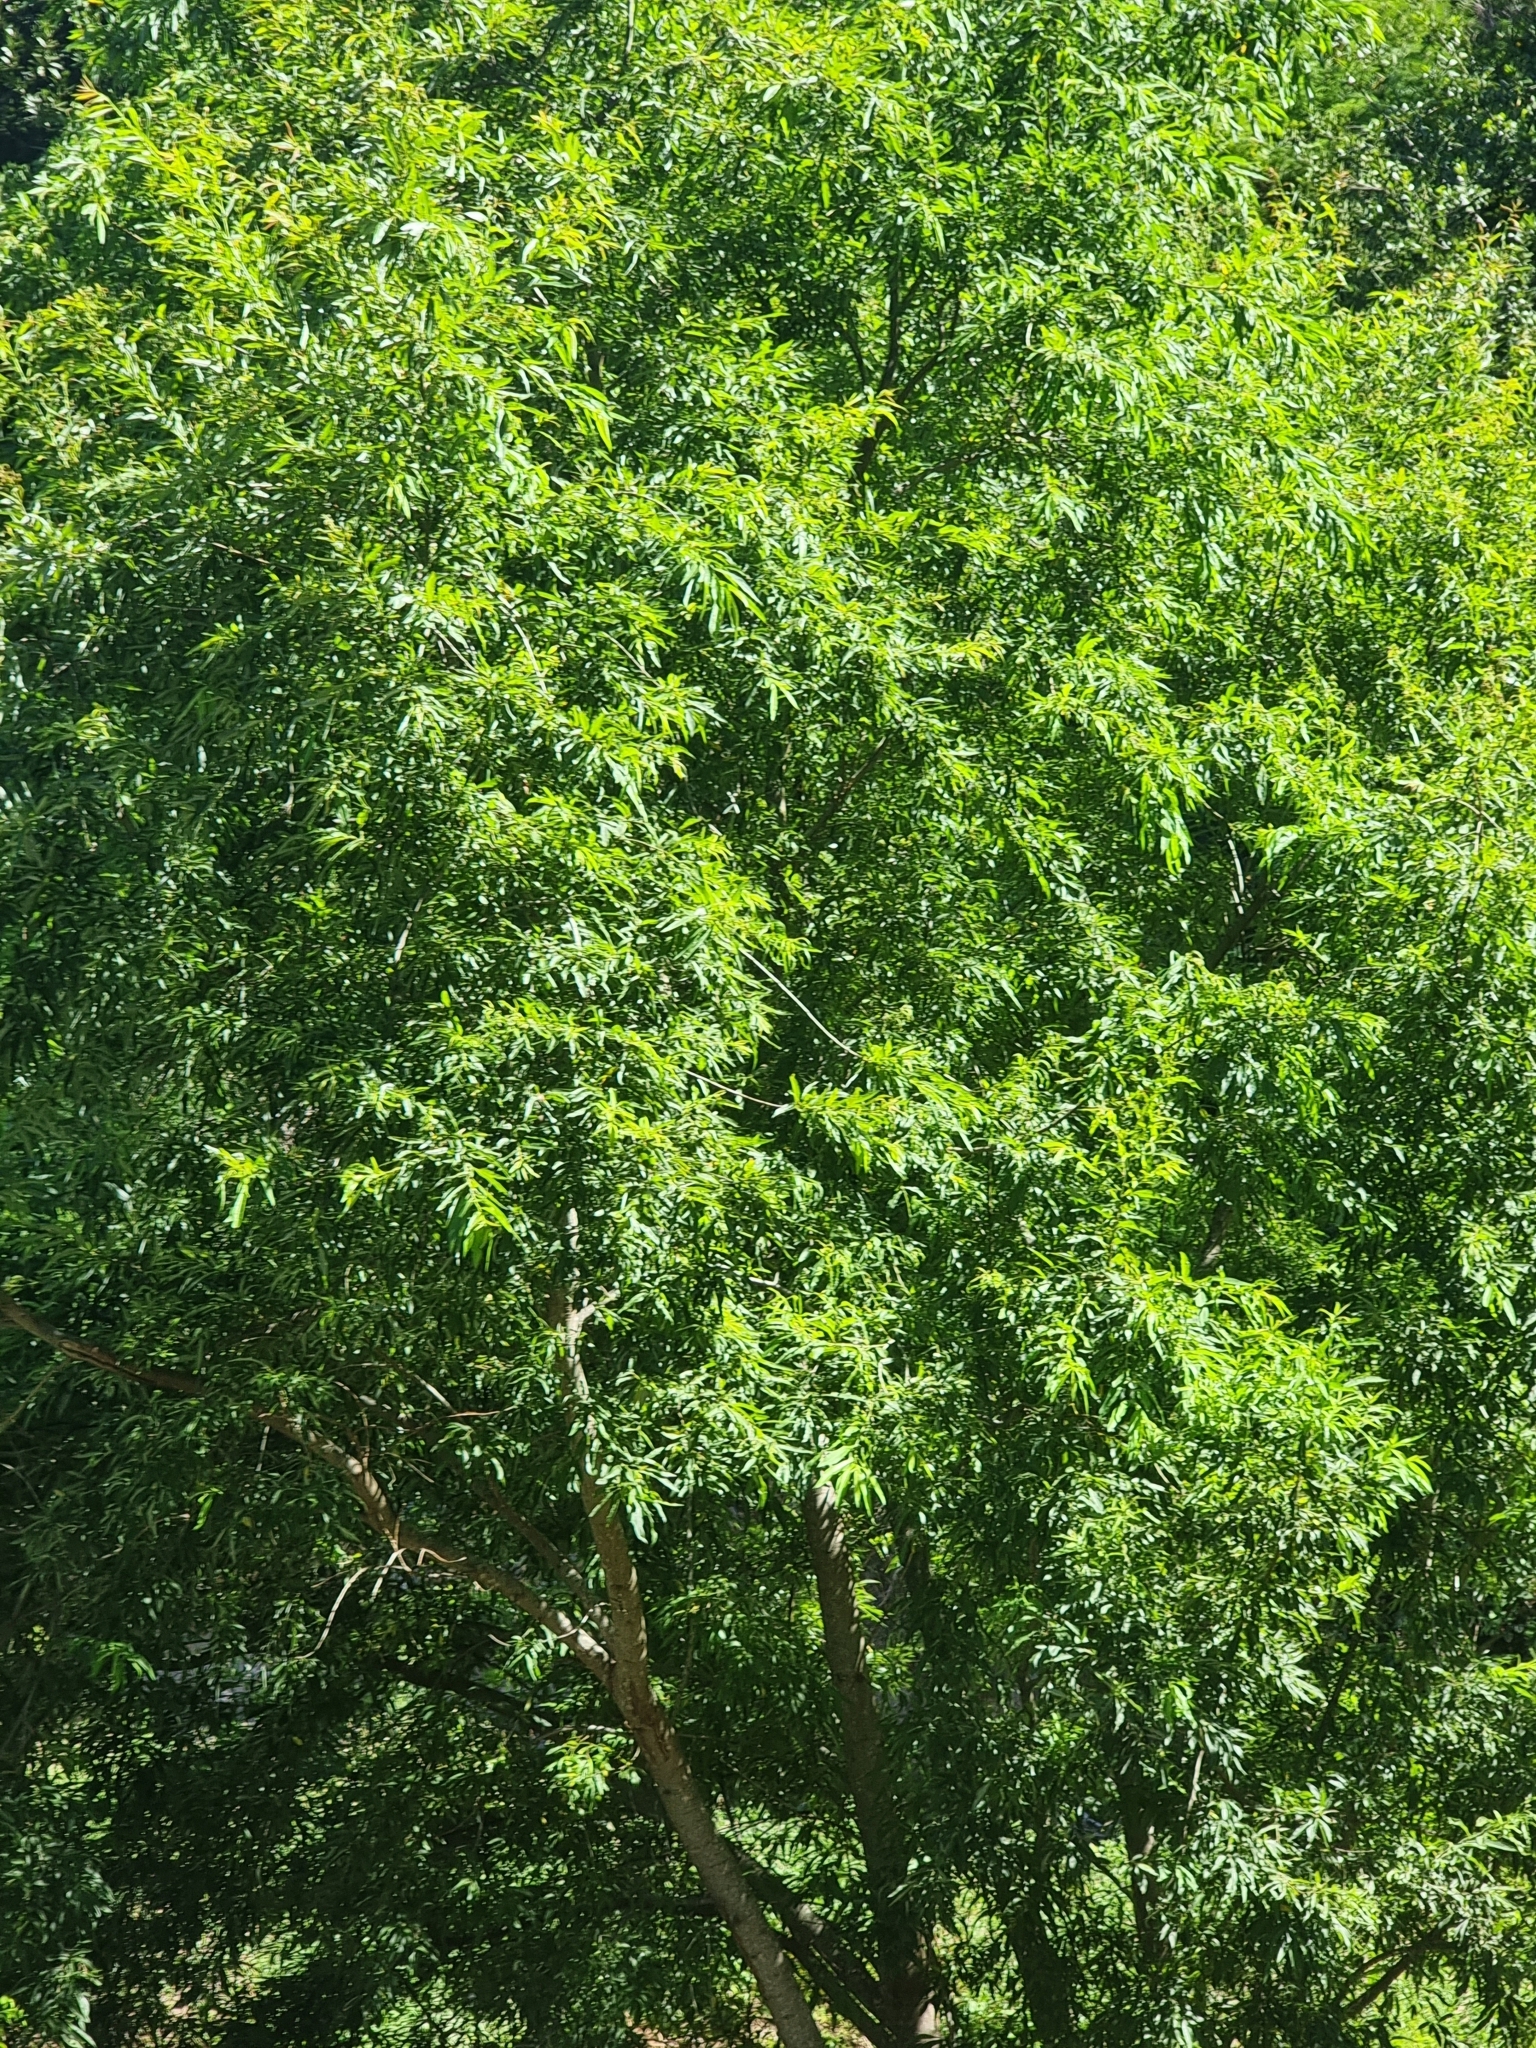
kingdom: Plantae
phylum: Tracheophyta
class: Magnoliopsida
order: Malpighiales
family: Salicaceae
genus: Salix
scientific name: Salix canariensis
